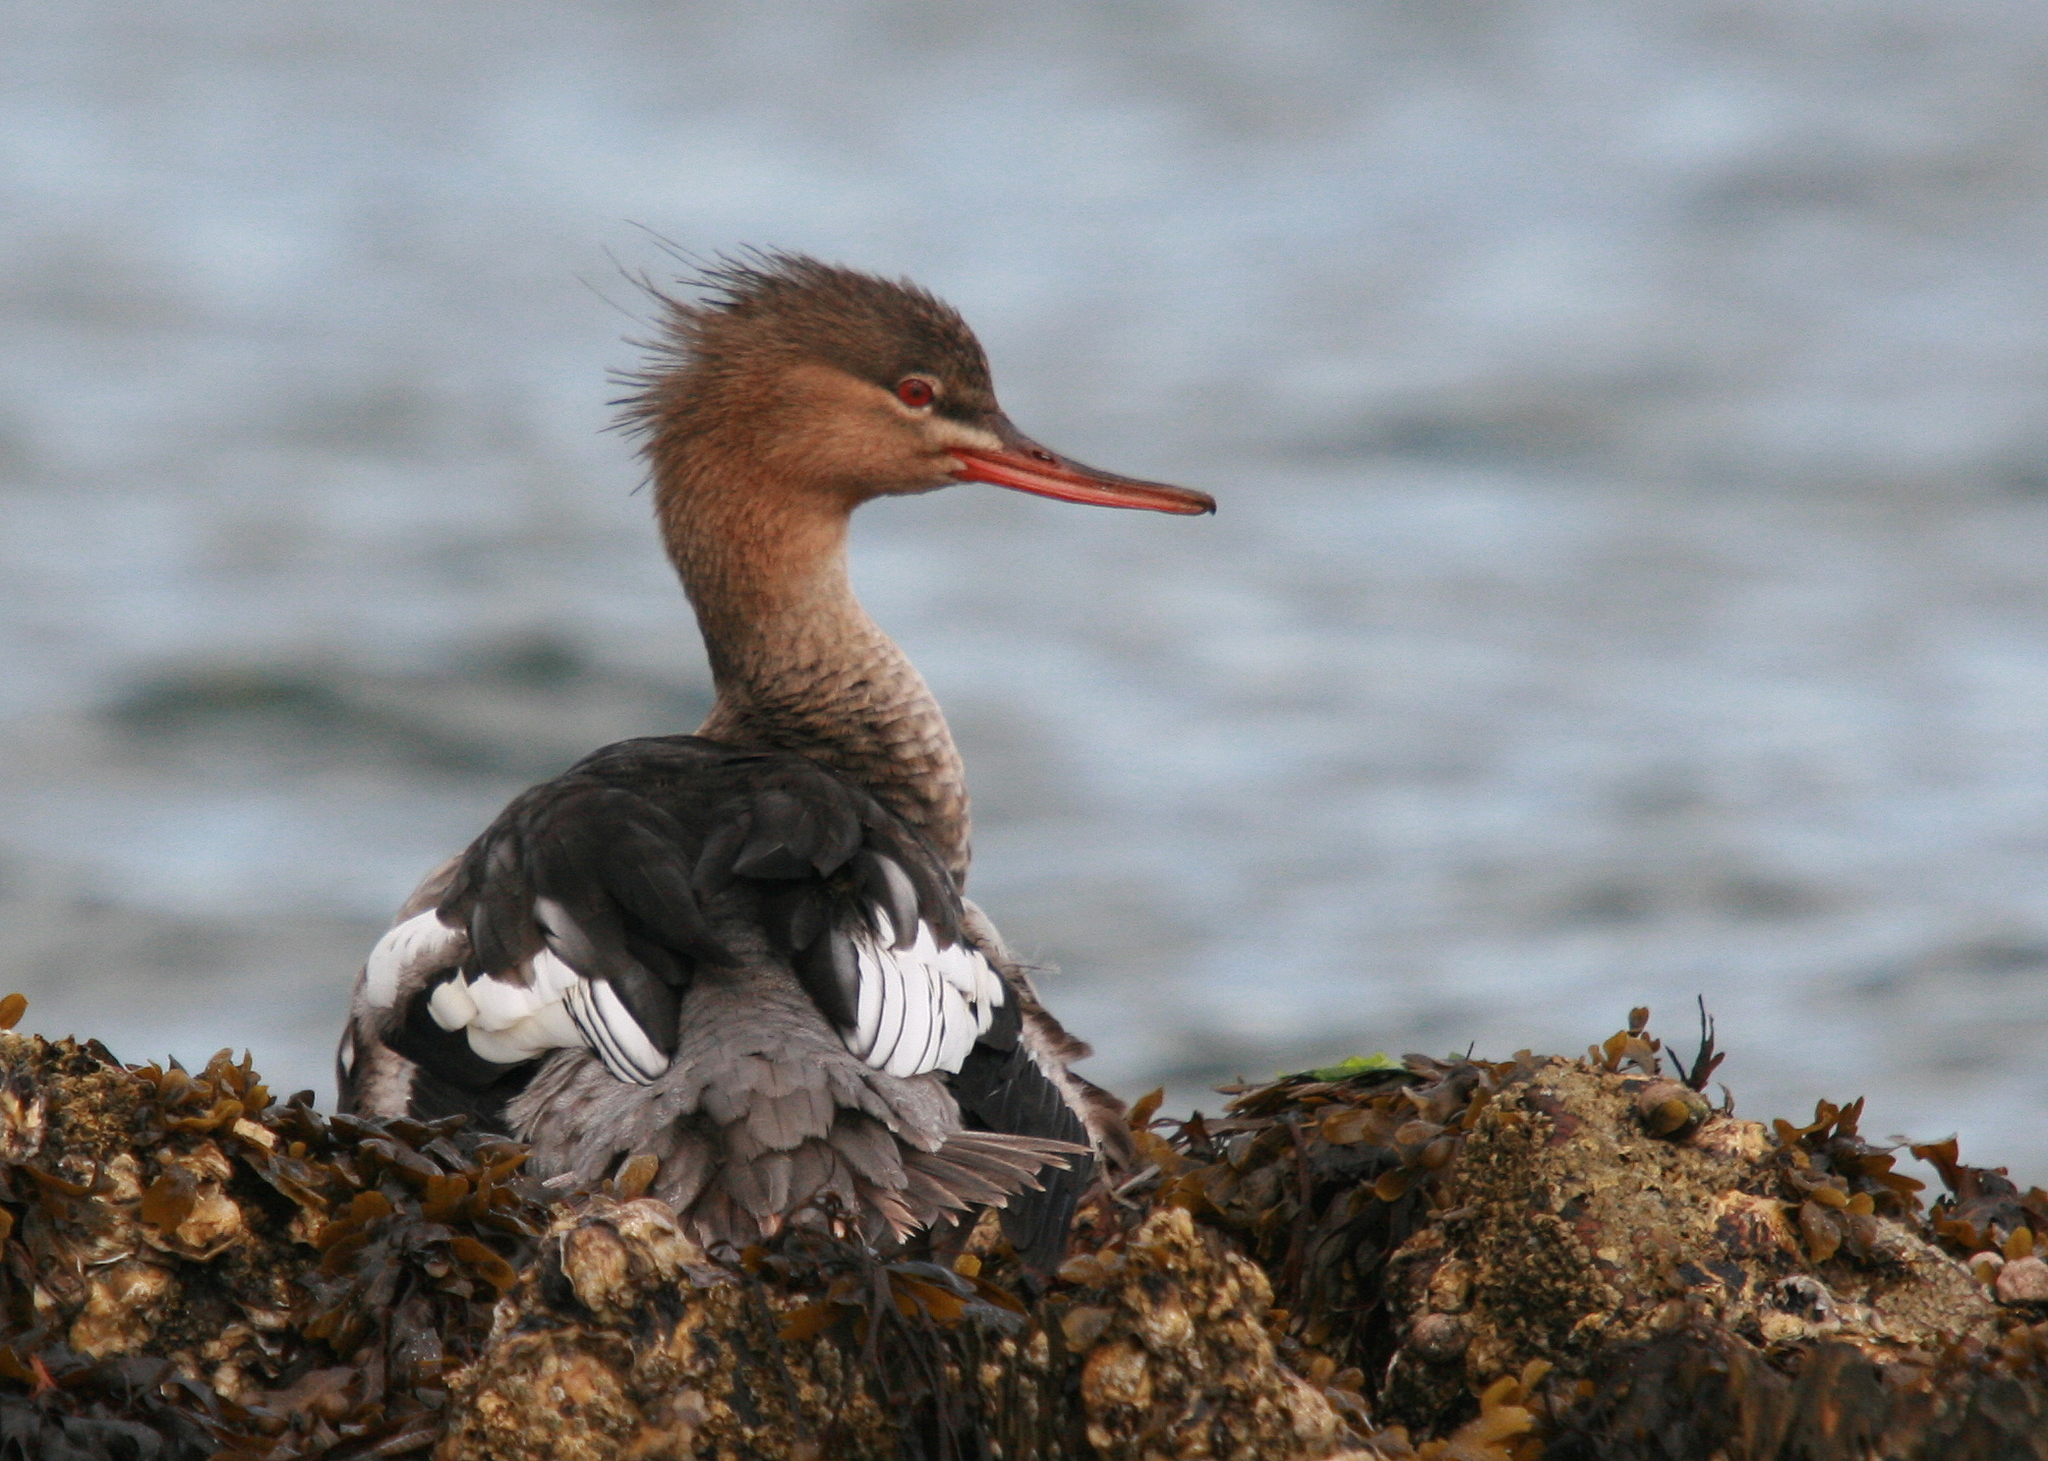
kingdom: Animalia
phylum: Chordata
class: Aves
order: Anseriformes
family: Anatidae
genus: Mergus
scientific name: Mergus serrator
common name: Red-breasted merganser
